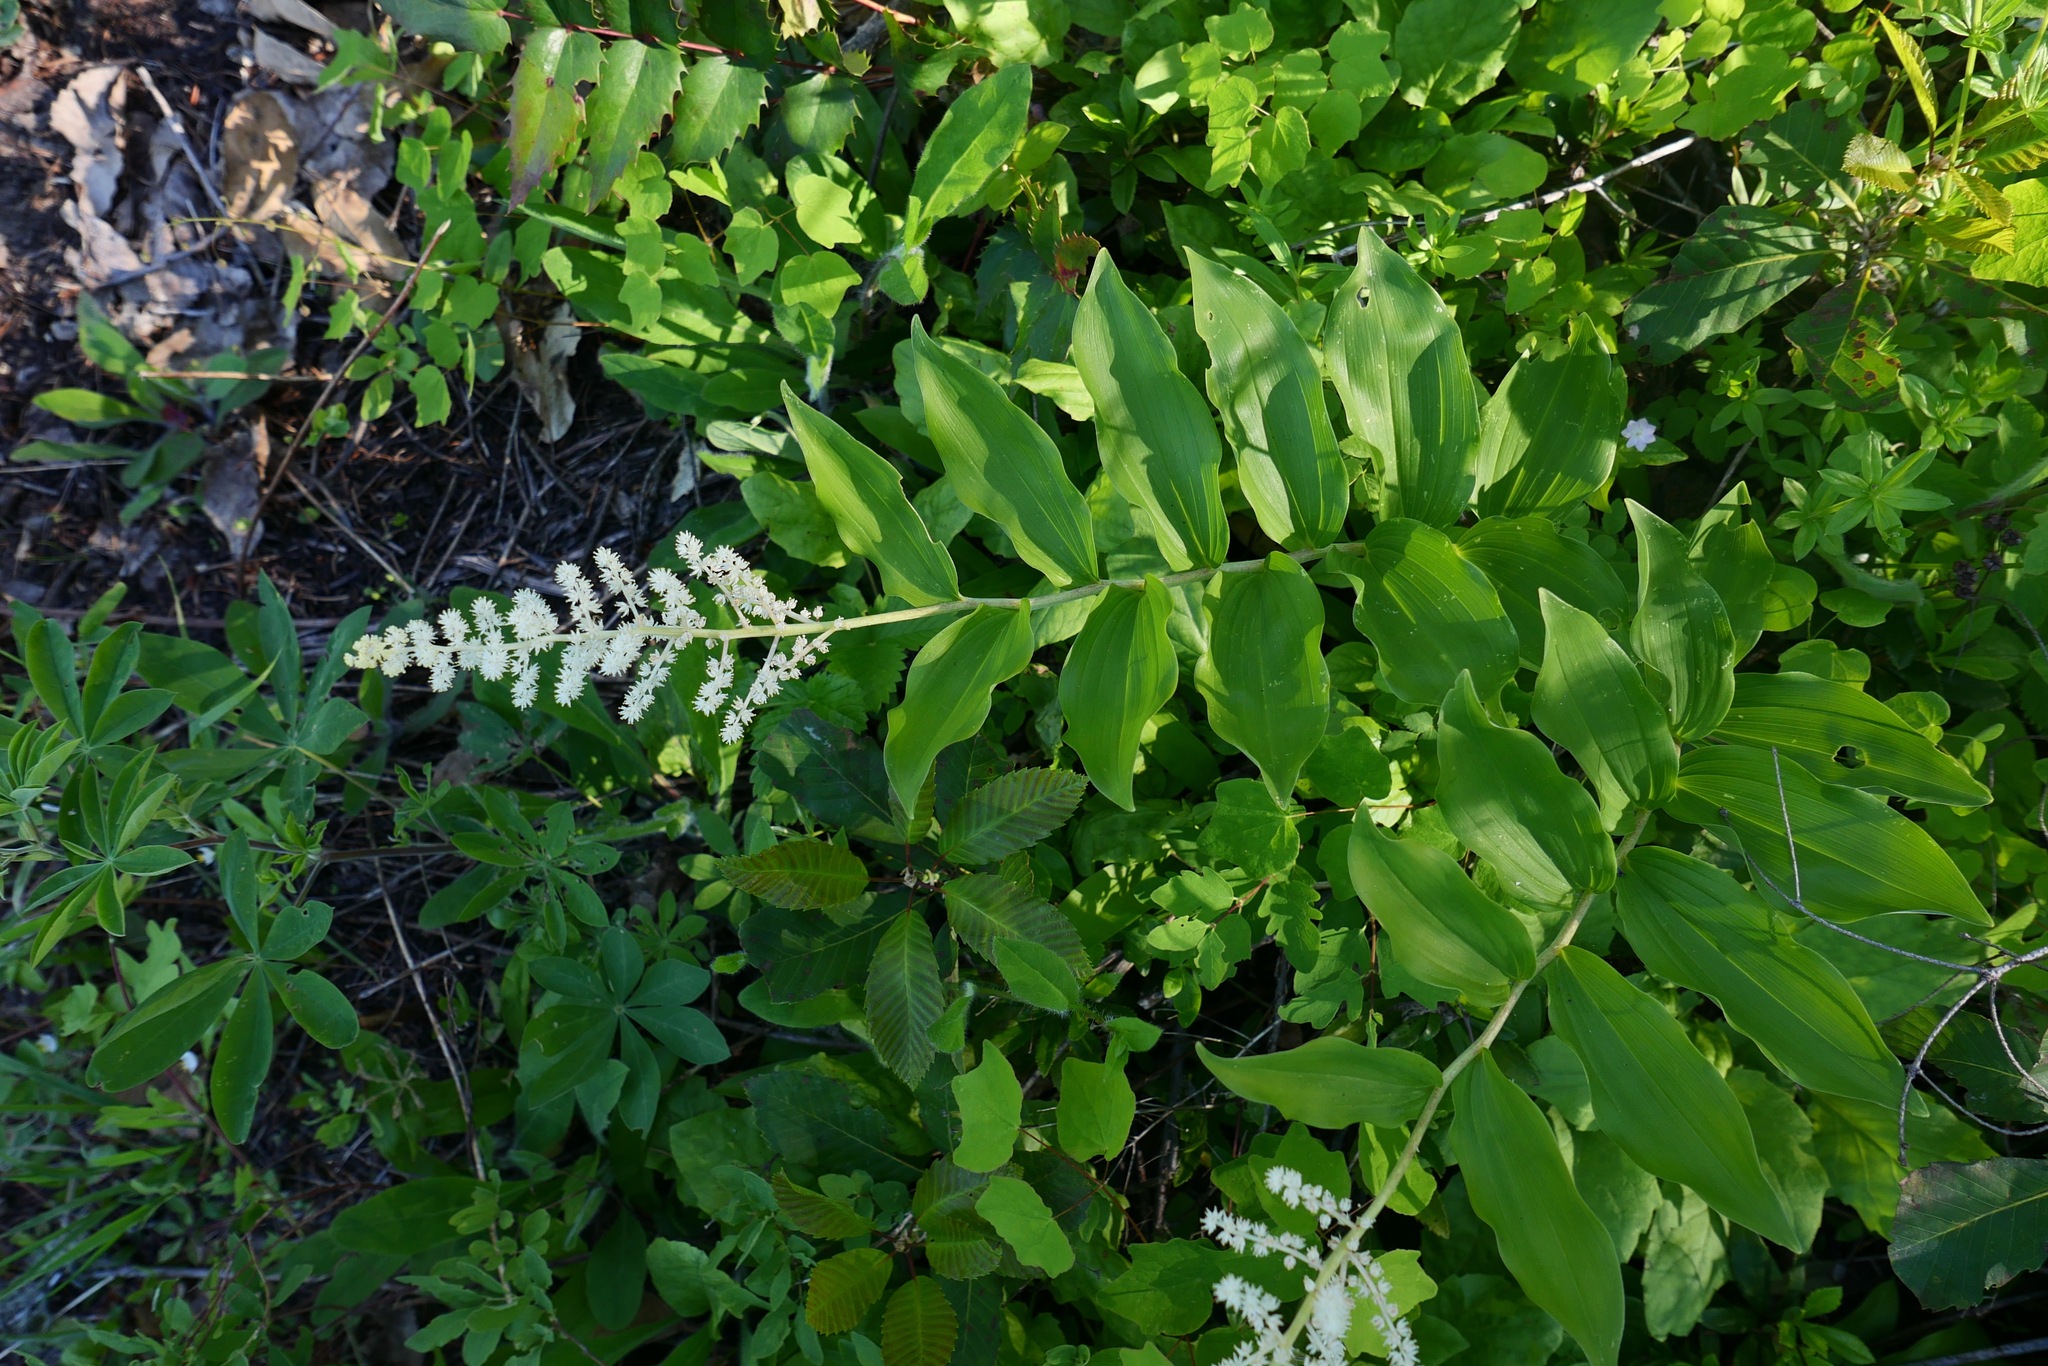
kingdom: Plantae
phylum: Tracheophyta
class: Liliopsida
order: Asparagales
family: Asparagaceae
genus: Maianthemum
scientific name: Maianthemum racemosum
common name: False spikenard
